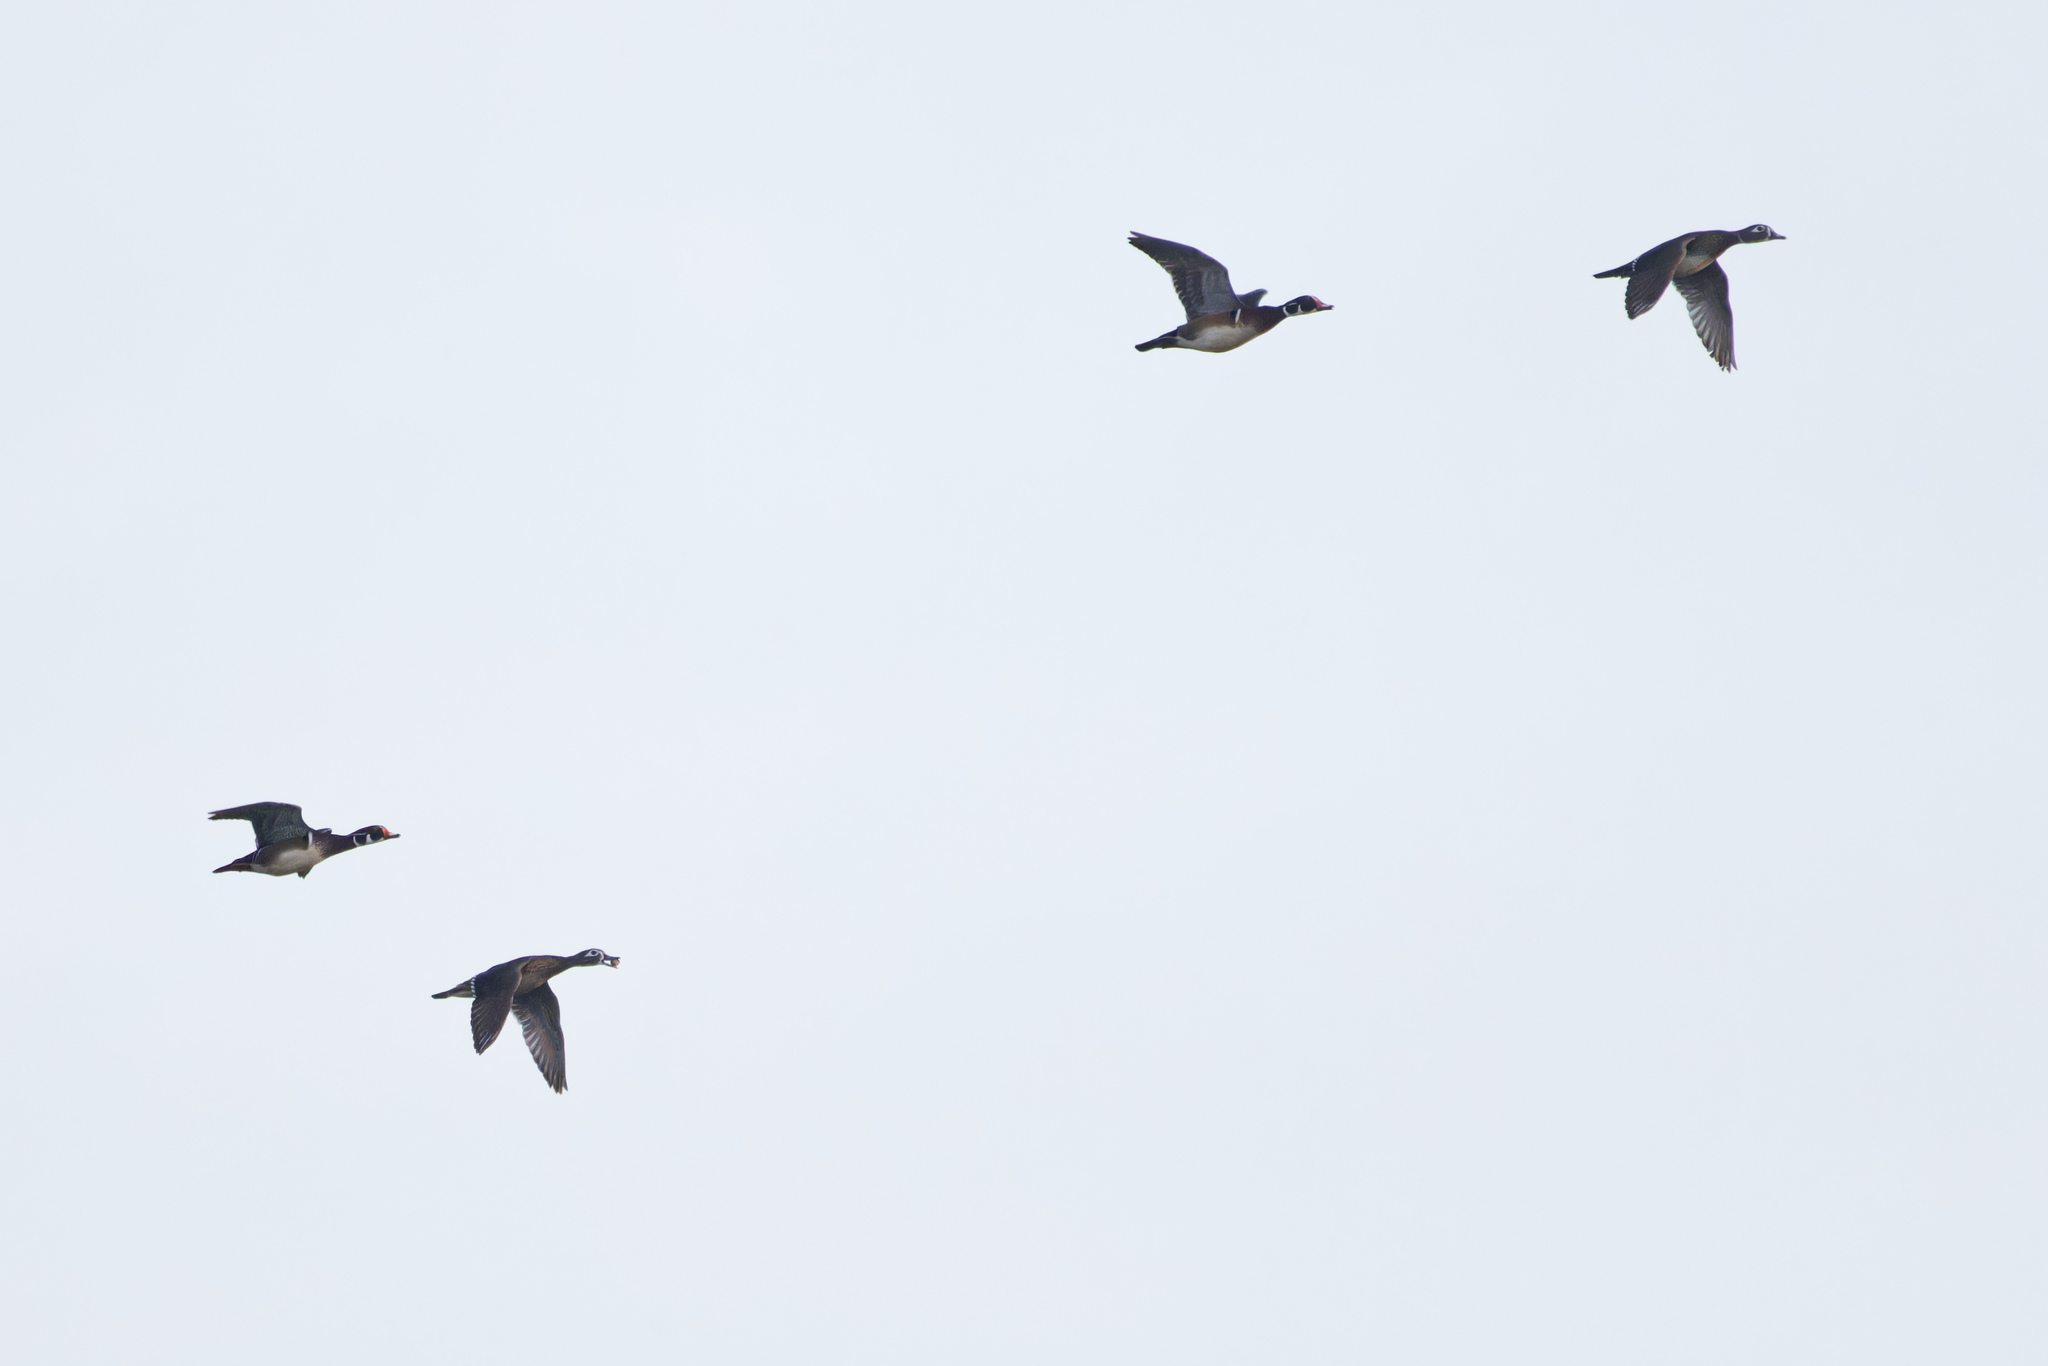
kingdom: Animalia
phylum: Chordata
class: Aves
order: Anseriformes
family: Anatidae
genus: Aix
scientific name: Aix sponsa
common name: Wood duck
